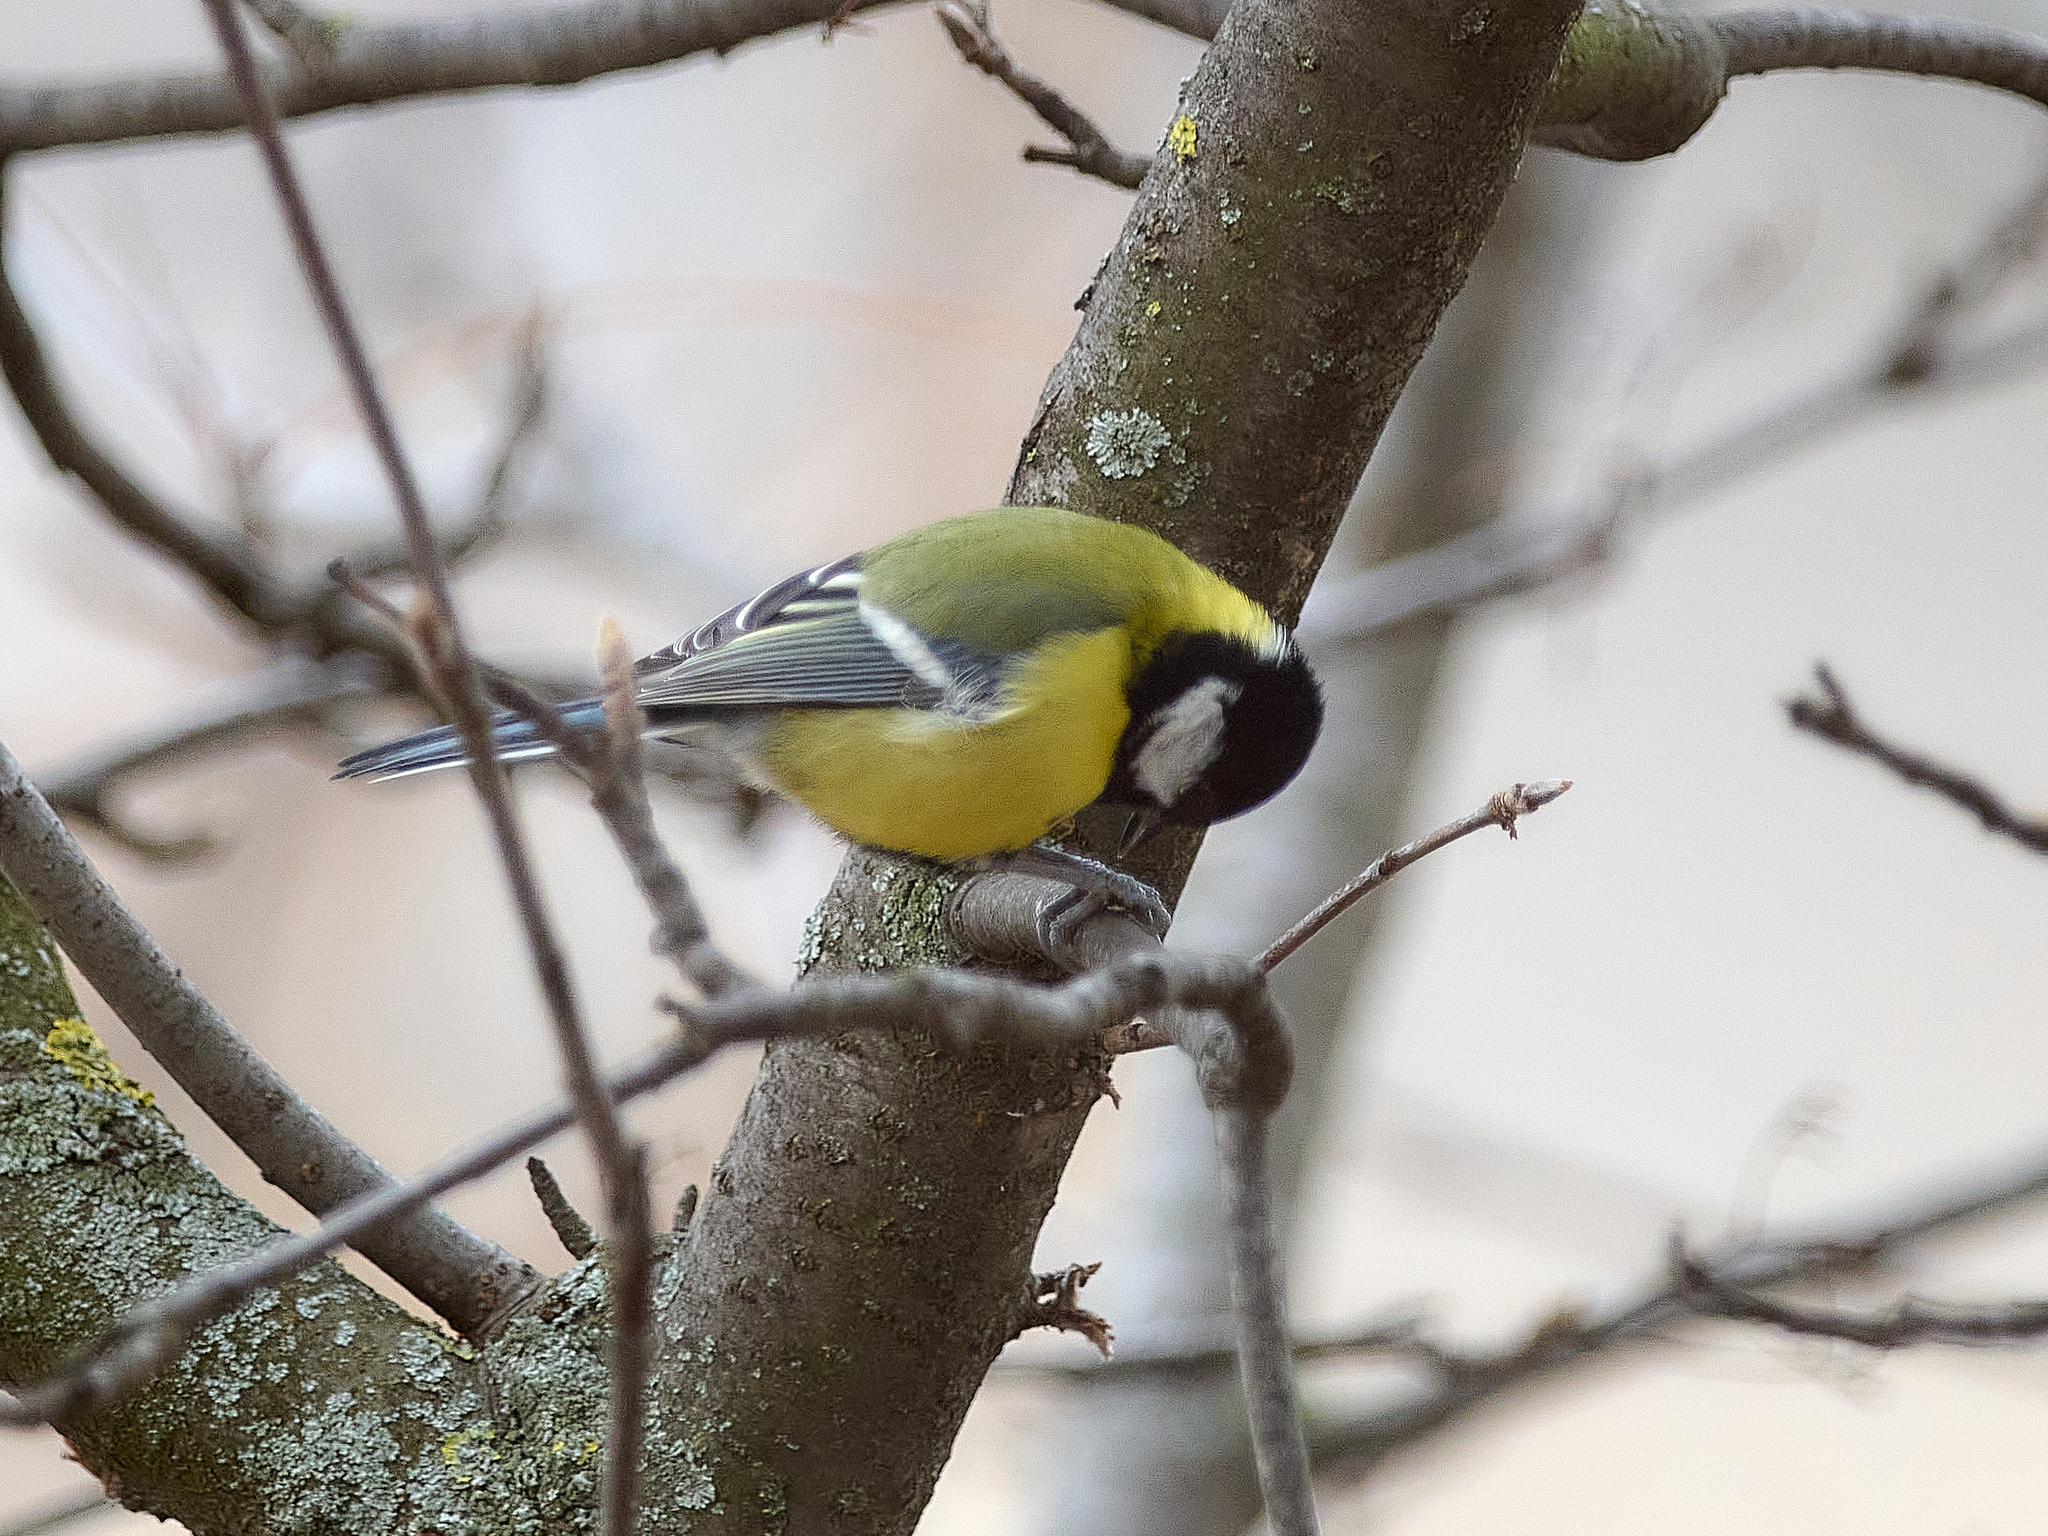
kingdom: Animalia
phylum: Chordata
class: Aves
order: Passeriformes
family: Paridae
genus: Parus
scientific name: Parus major
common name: Great tit
